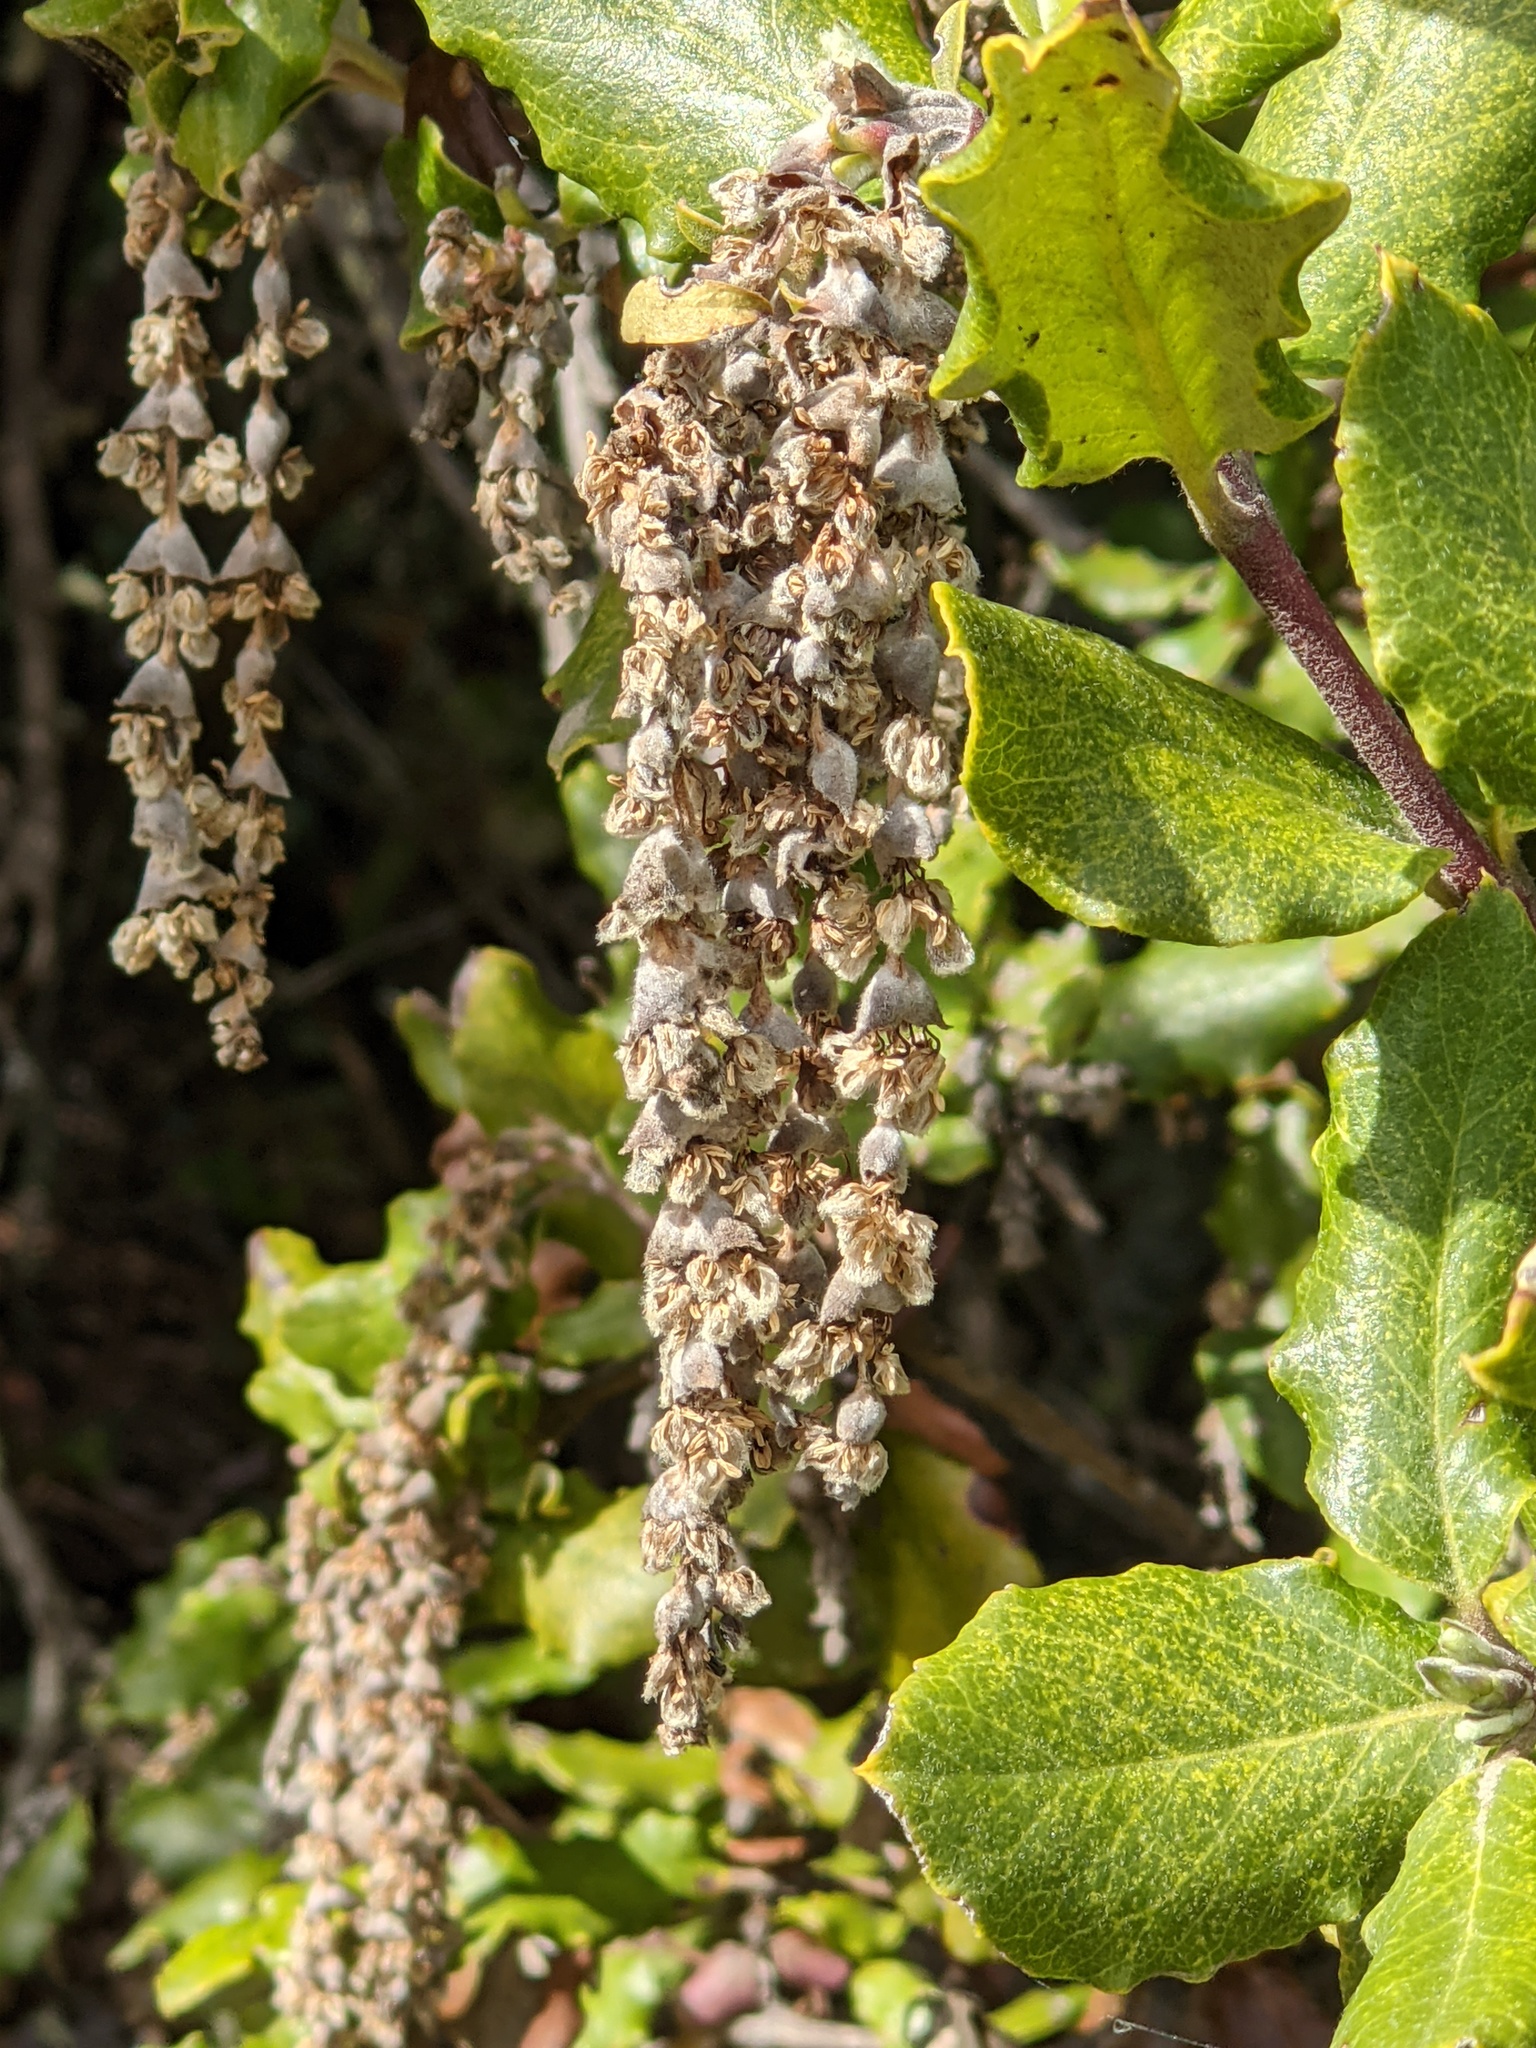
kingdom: Plantae
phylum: Tracheophyta
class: Magnoliopsida
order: Garryales
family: Garryaceae
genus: Garrya
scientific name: Garrya elliptica
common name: Silk-tassel
